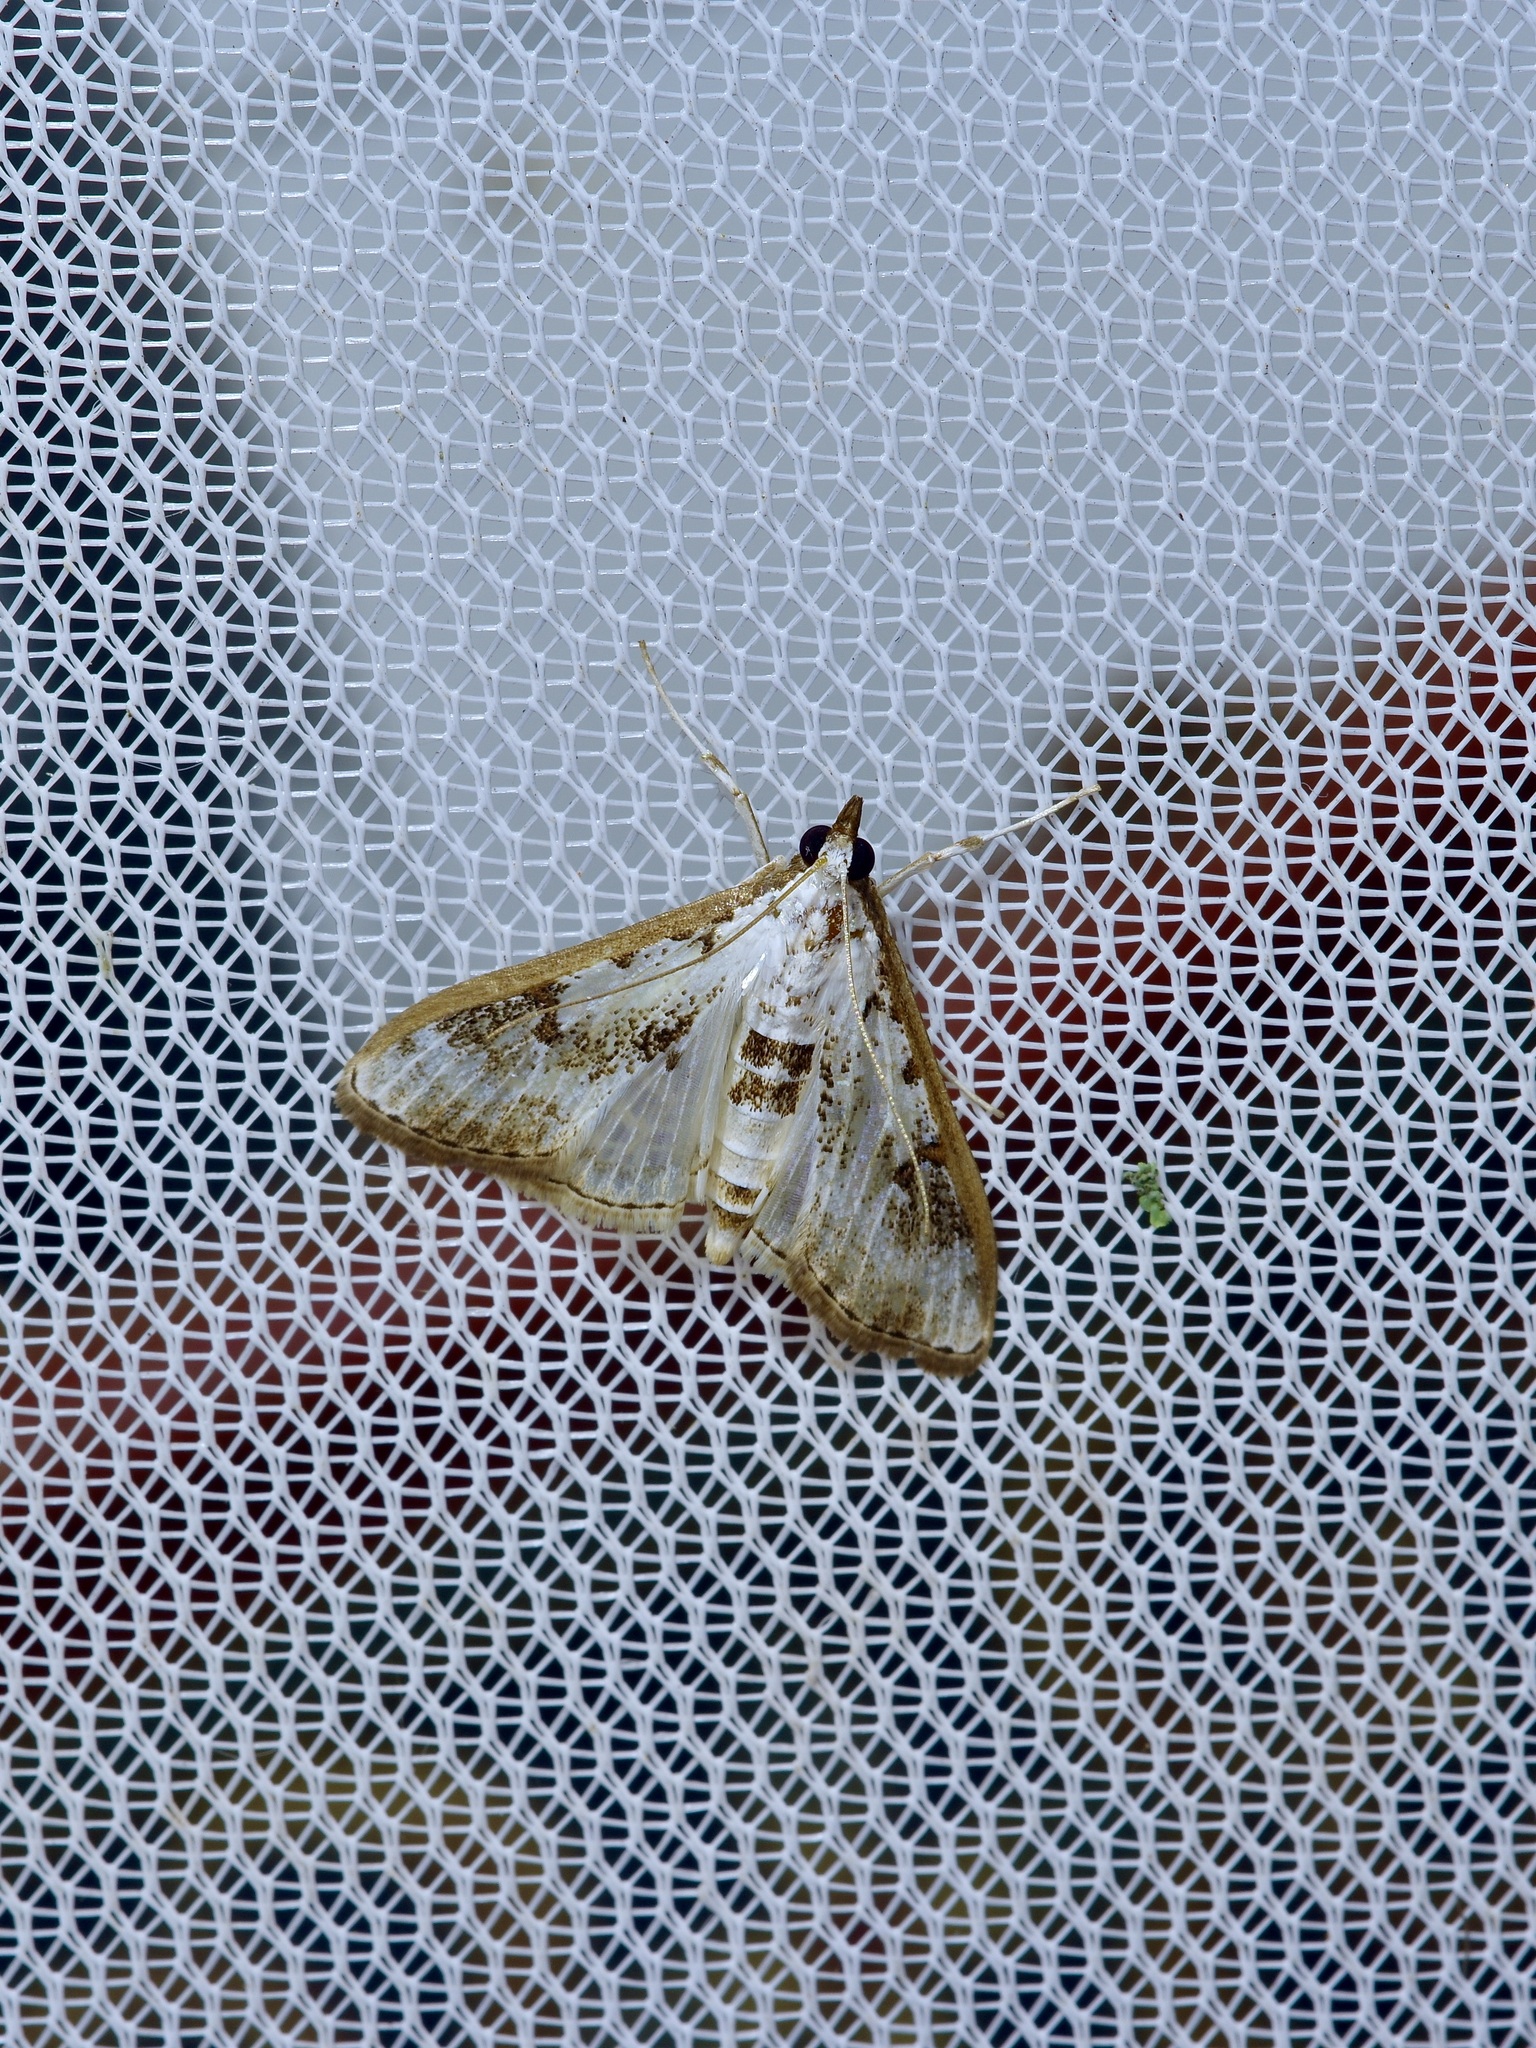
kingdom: Animalia
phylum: Arthropoda
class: Insecta
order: Lepidoptera
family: Crambidae
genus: Palpita
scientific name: Palpita gracilalis
